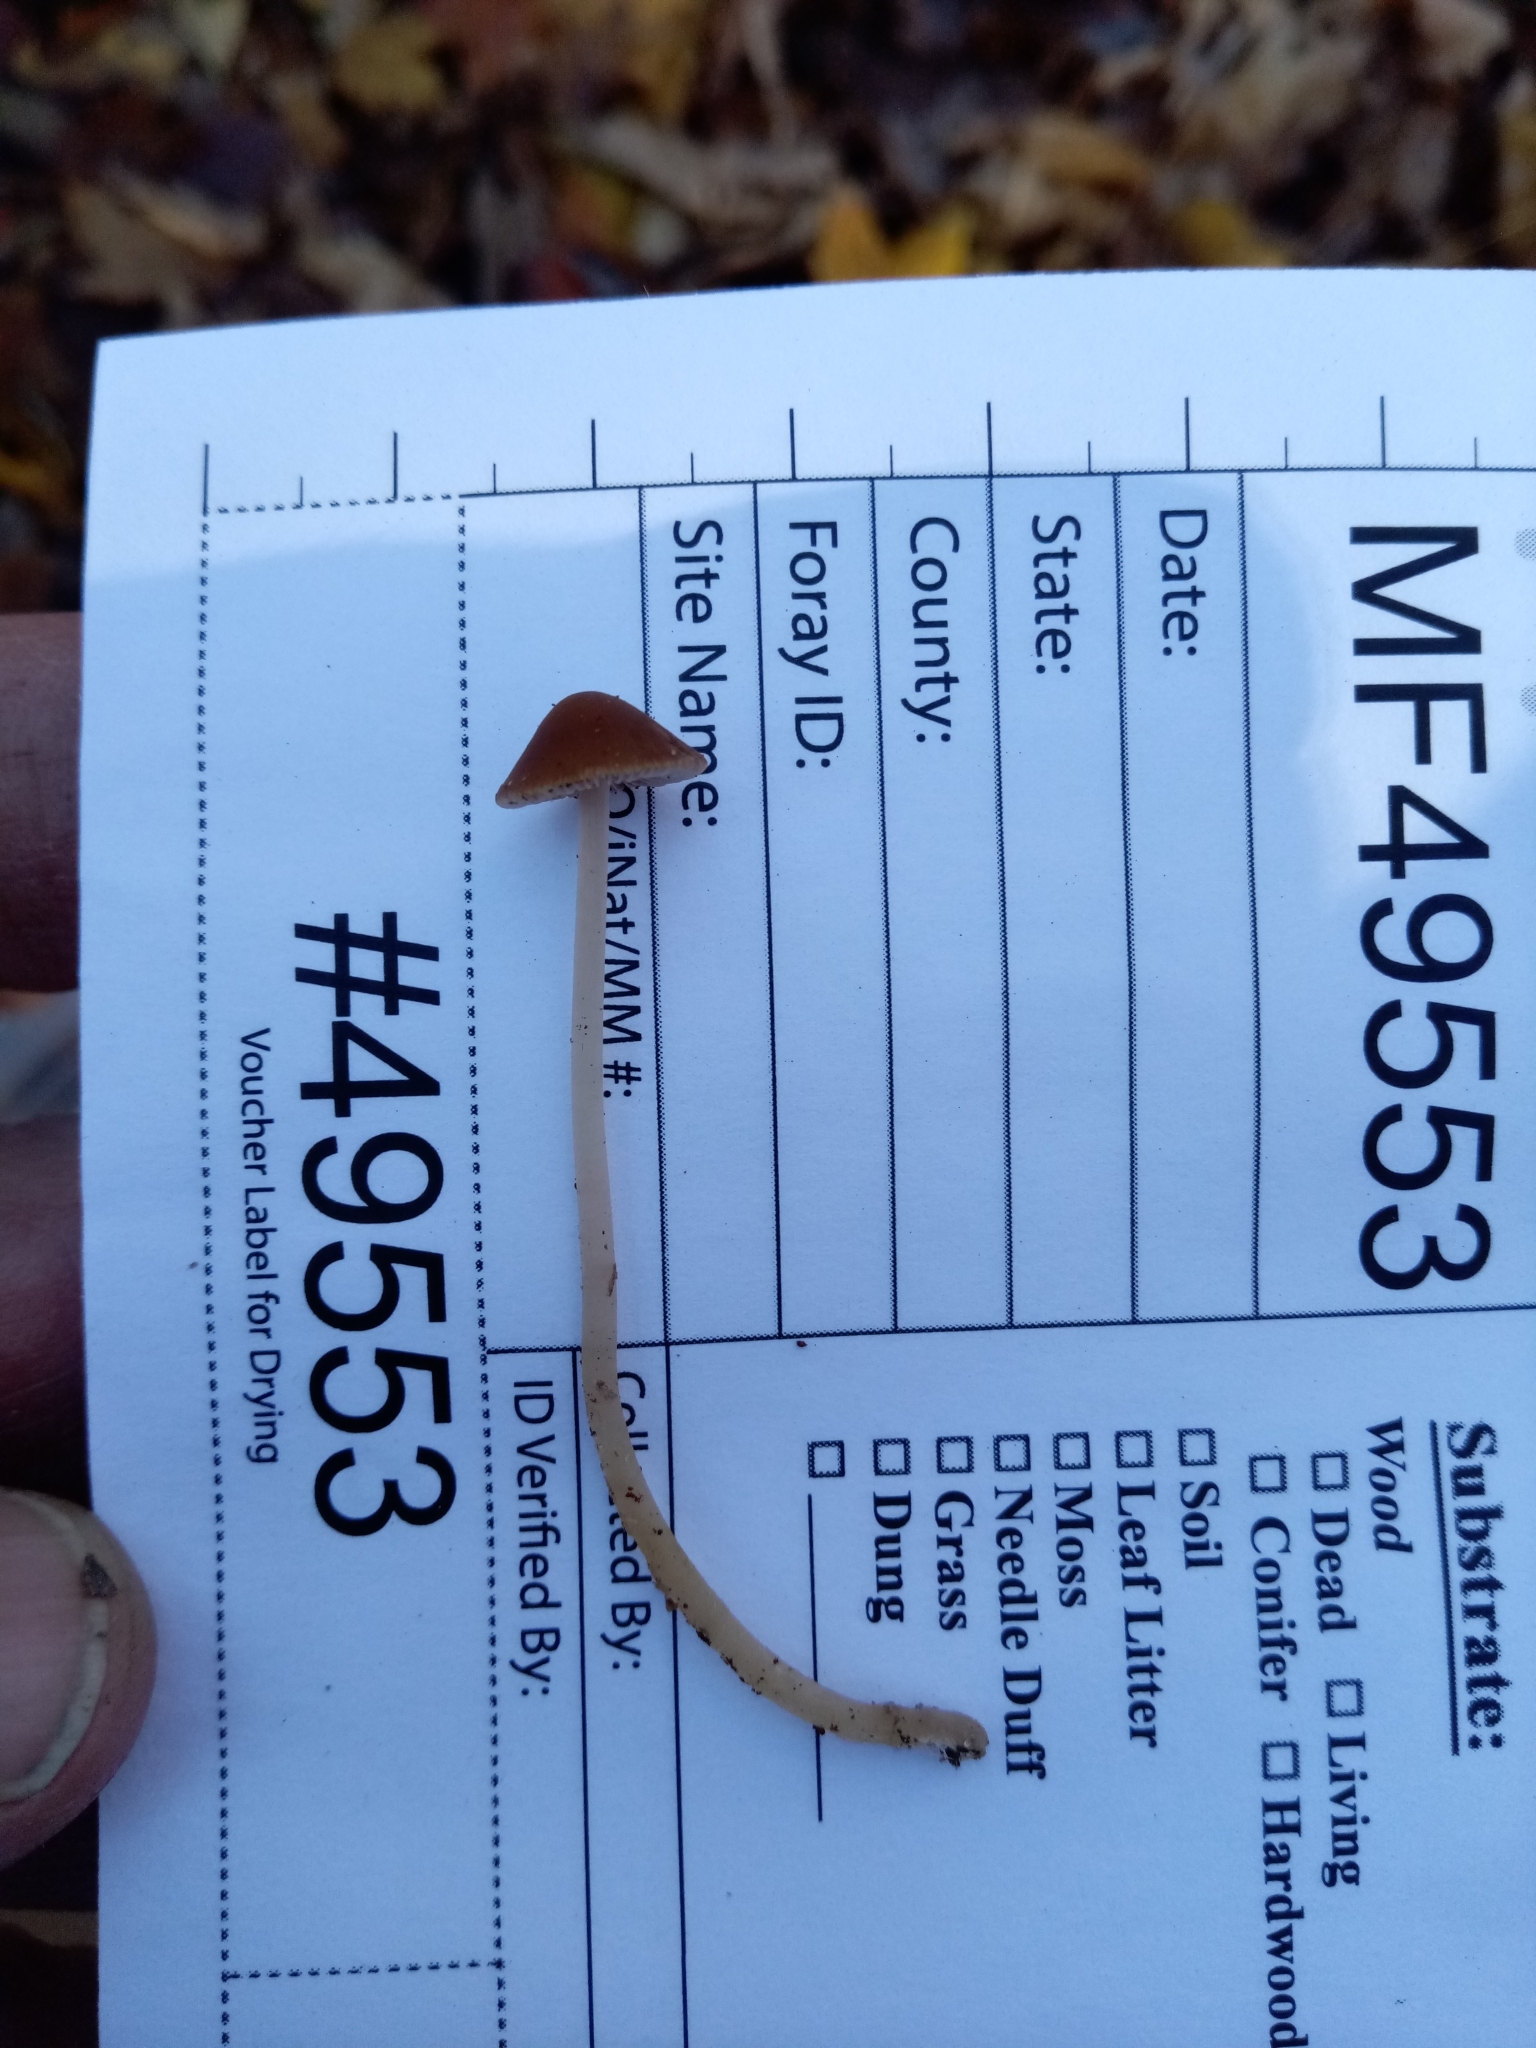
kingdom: Fungi
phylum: Basidiomycota
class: Agaricomycetes
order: Agaricales
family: Psathyrellaceae
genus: Psathyrella
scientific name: Psathyrella amarescens
